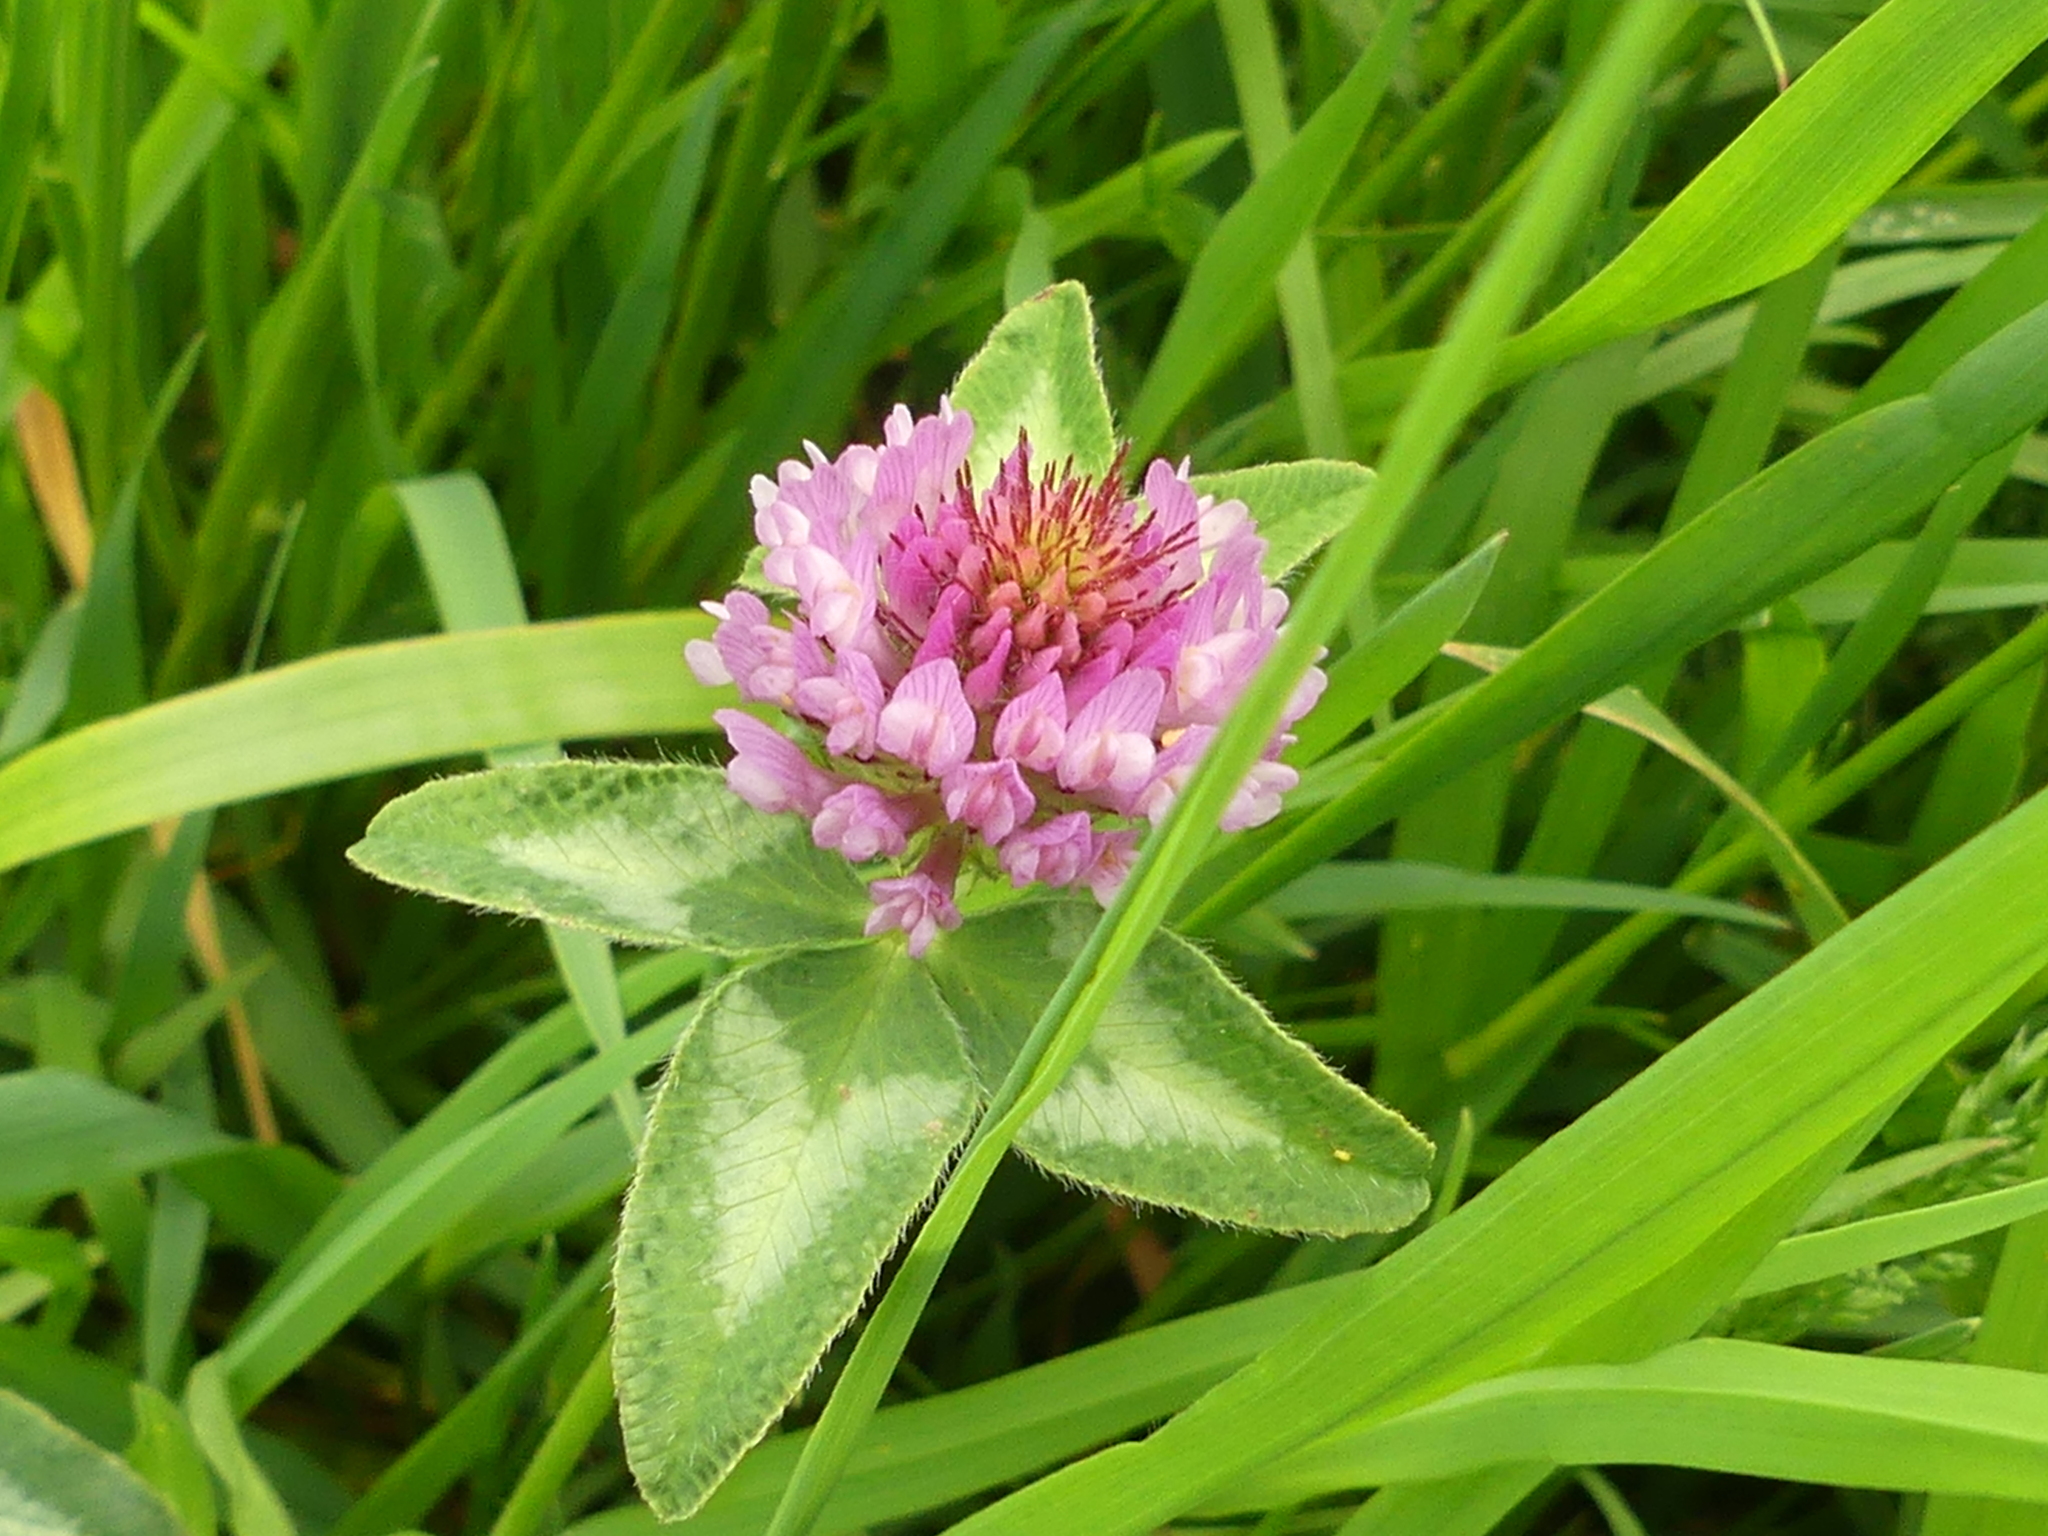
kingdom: Plantae
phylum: Tracheophyta
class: Magnoliopsida
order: Fabales
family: Fabaceae
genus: Trifolium
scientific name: Trifolium pratense
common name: Red clover
